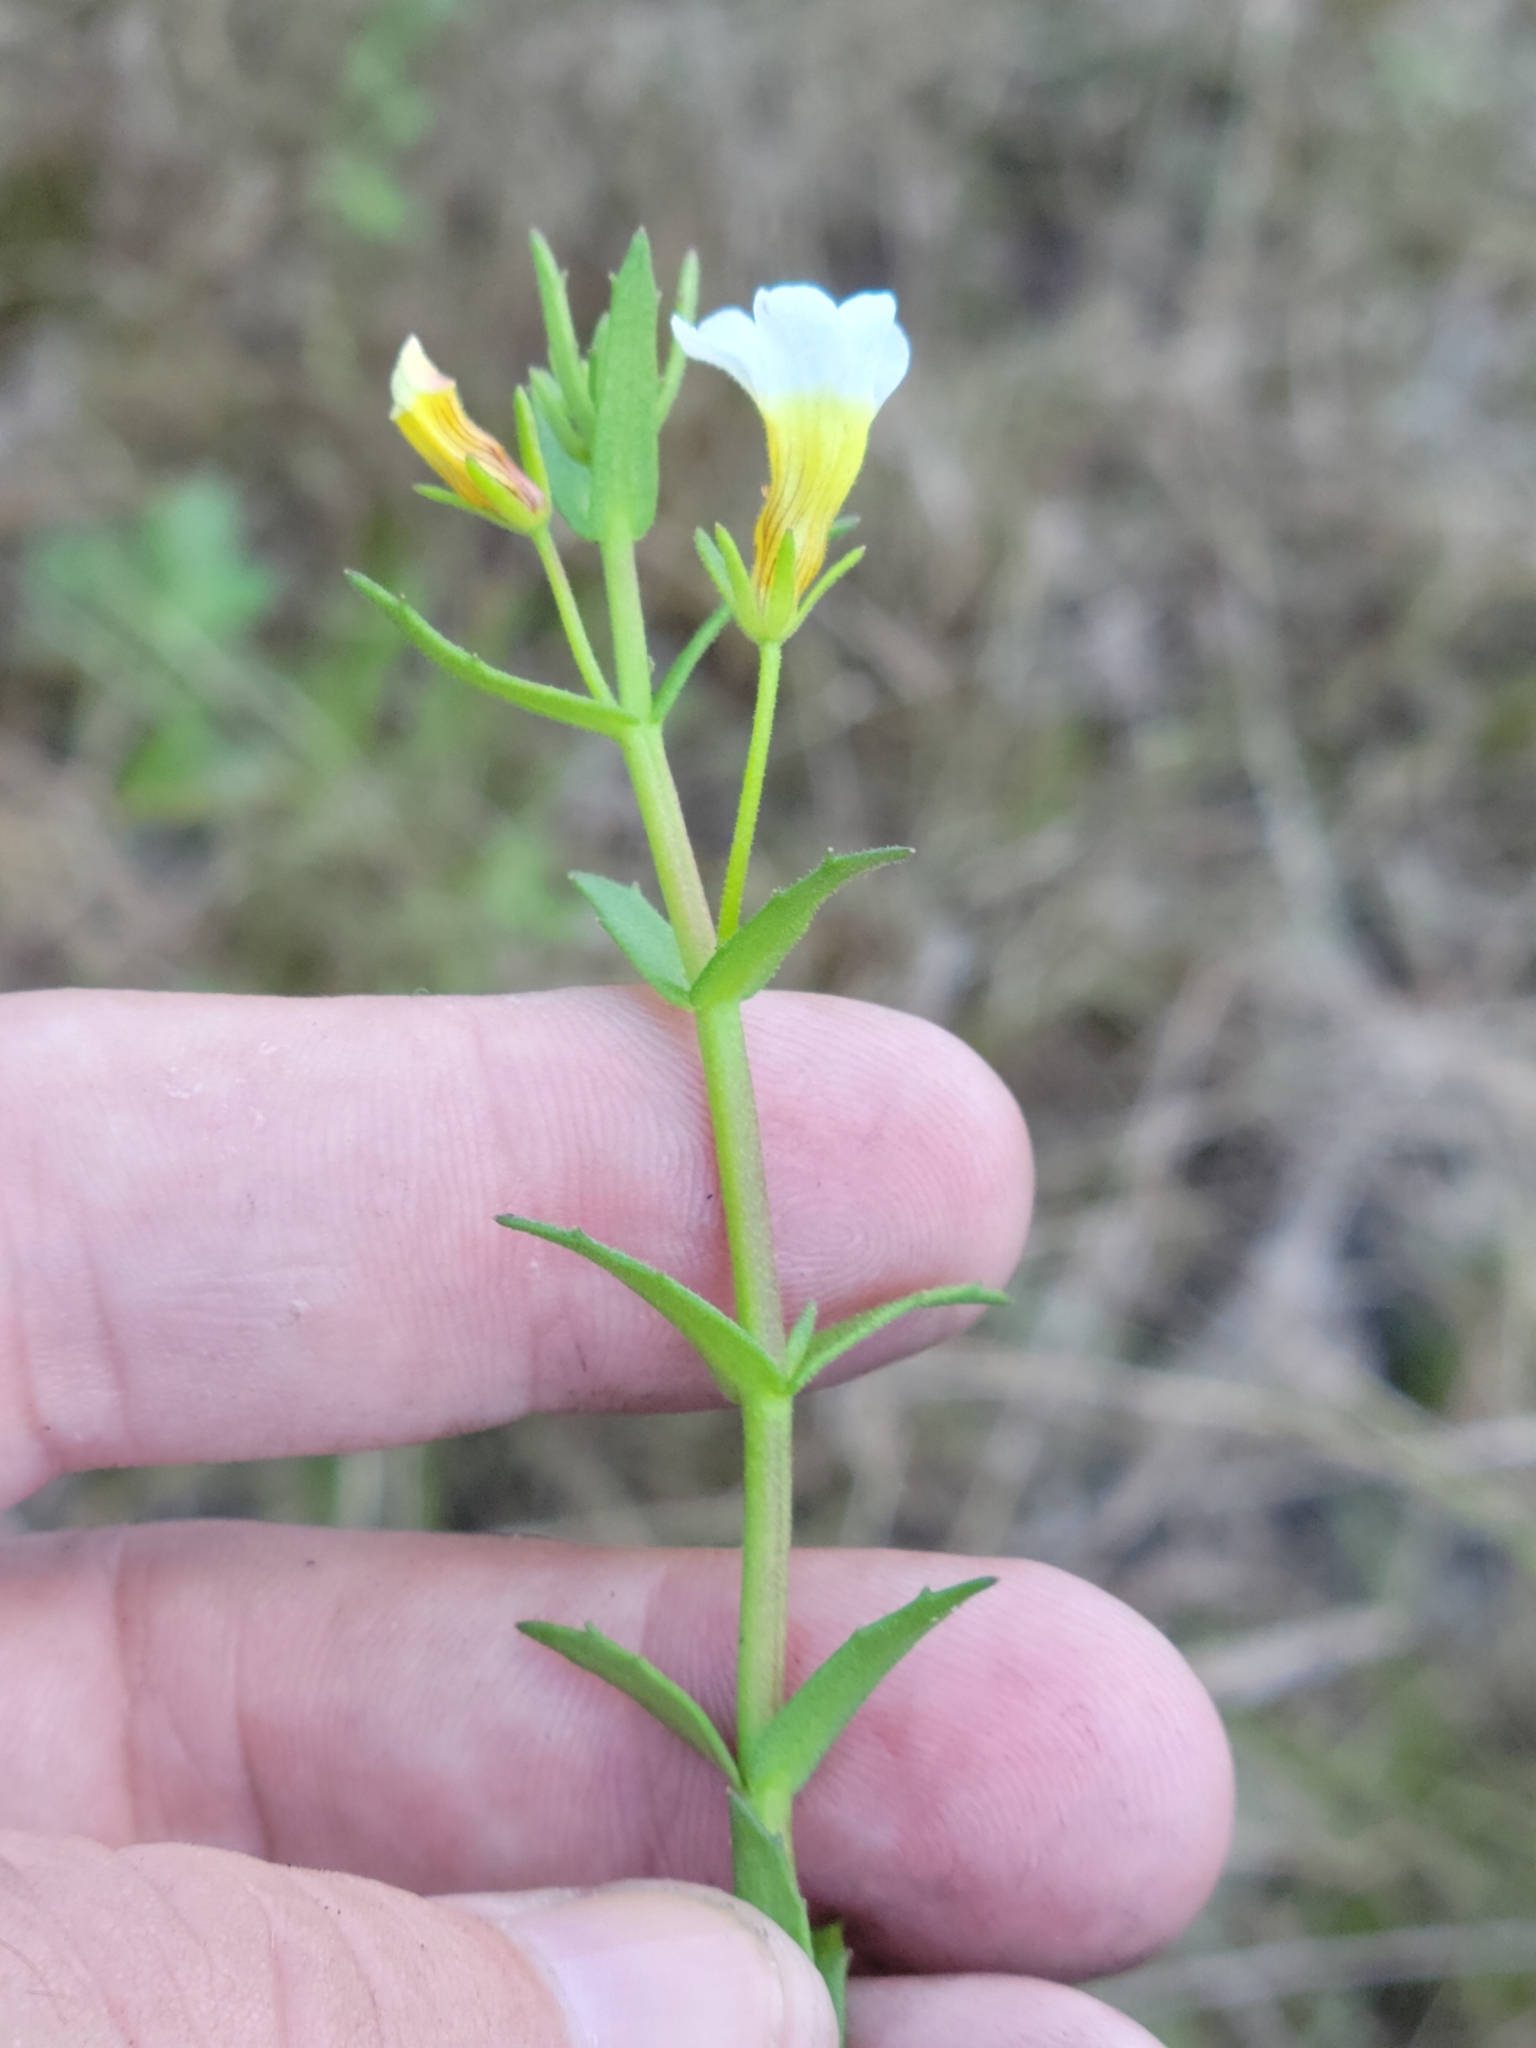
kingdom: Plantae
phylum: Tracheophyta
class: Magnoliopsida
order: Lamiales
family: Plantaginaceae
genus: Gratiola
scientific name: Gratiola ramosa
